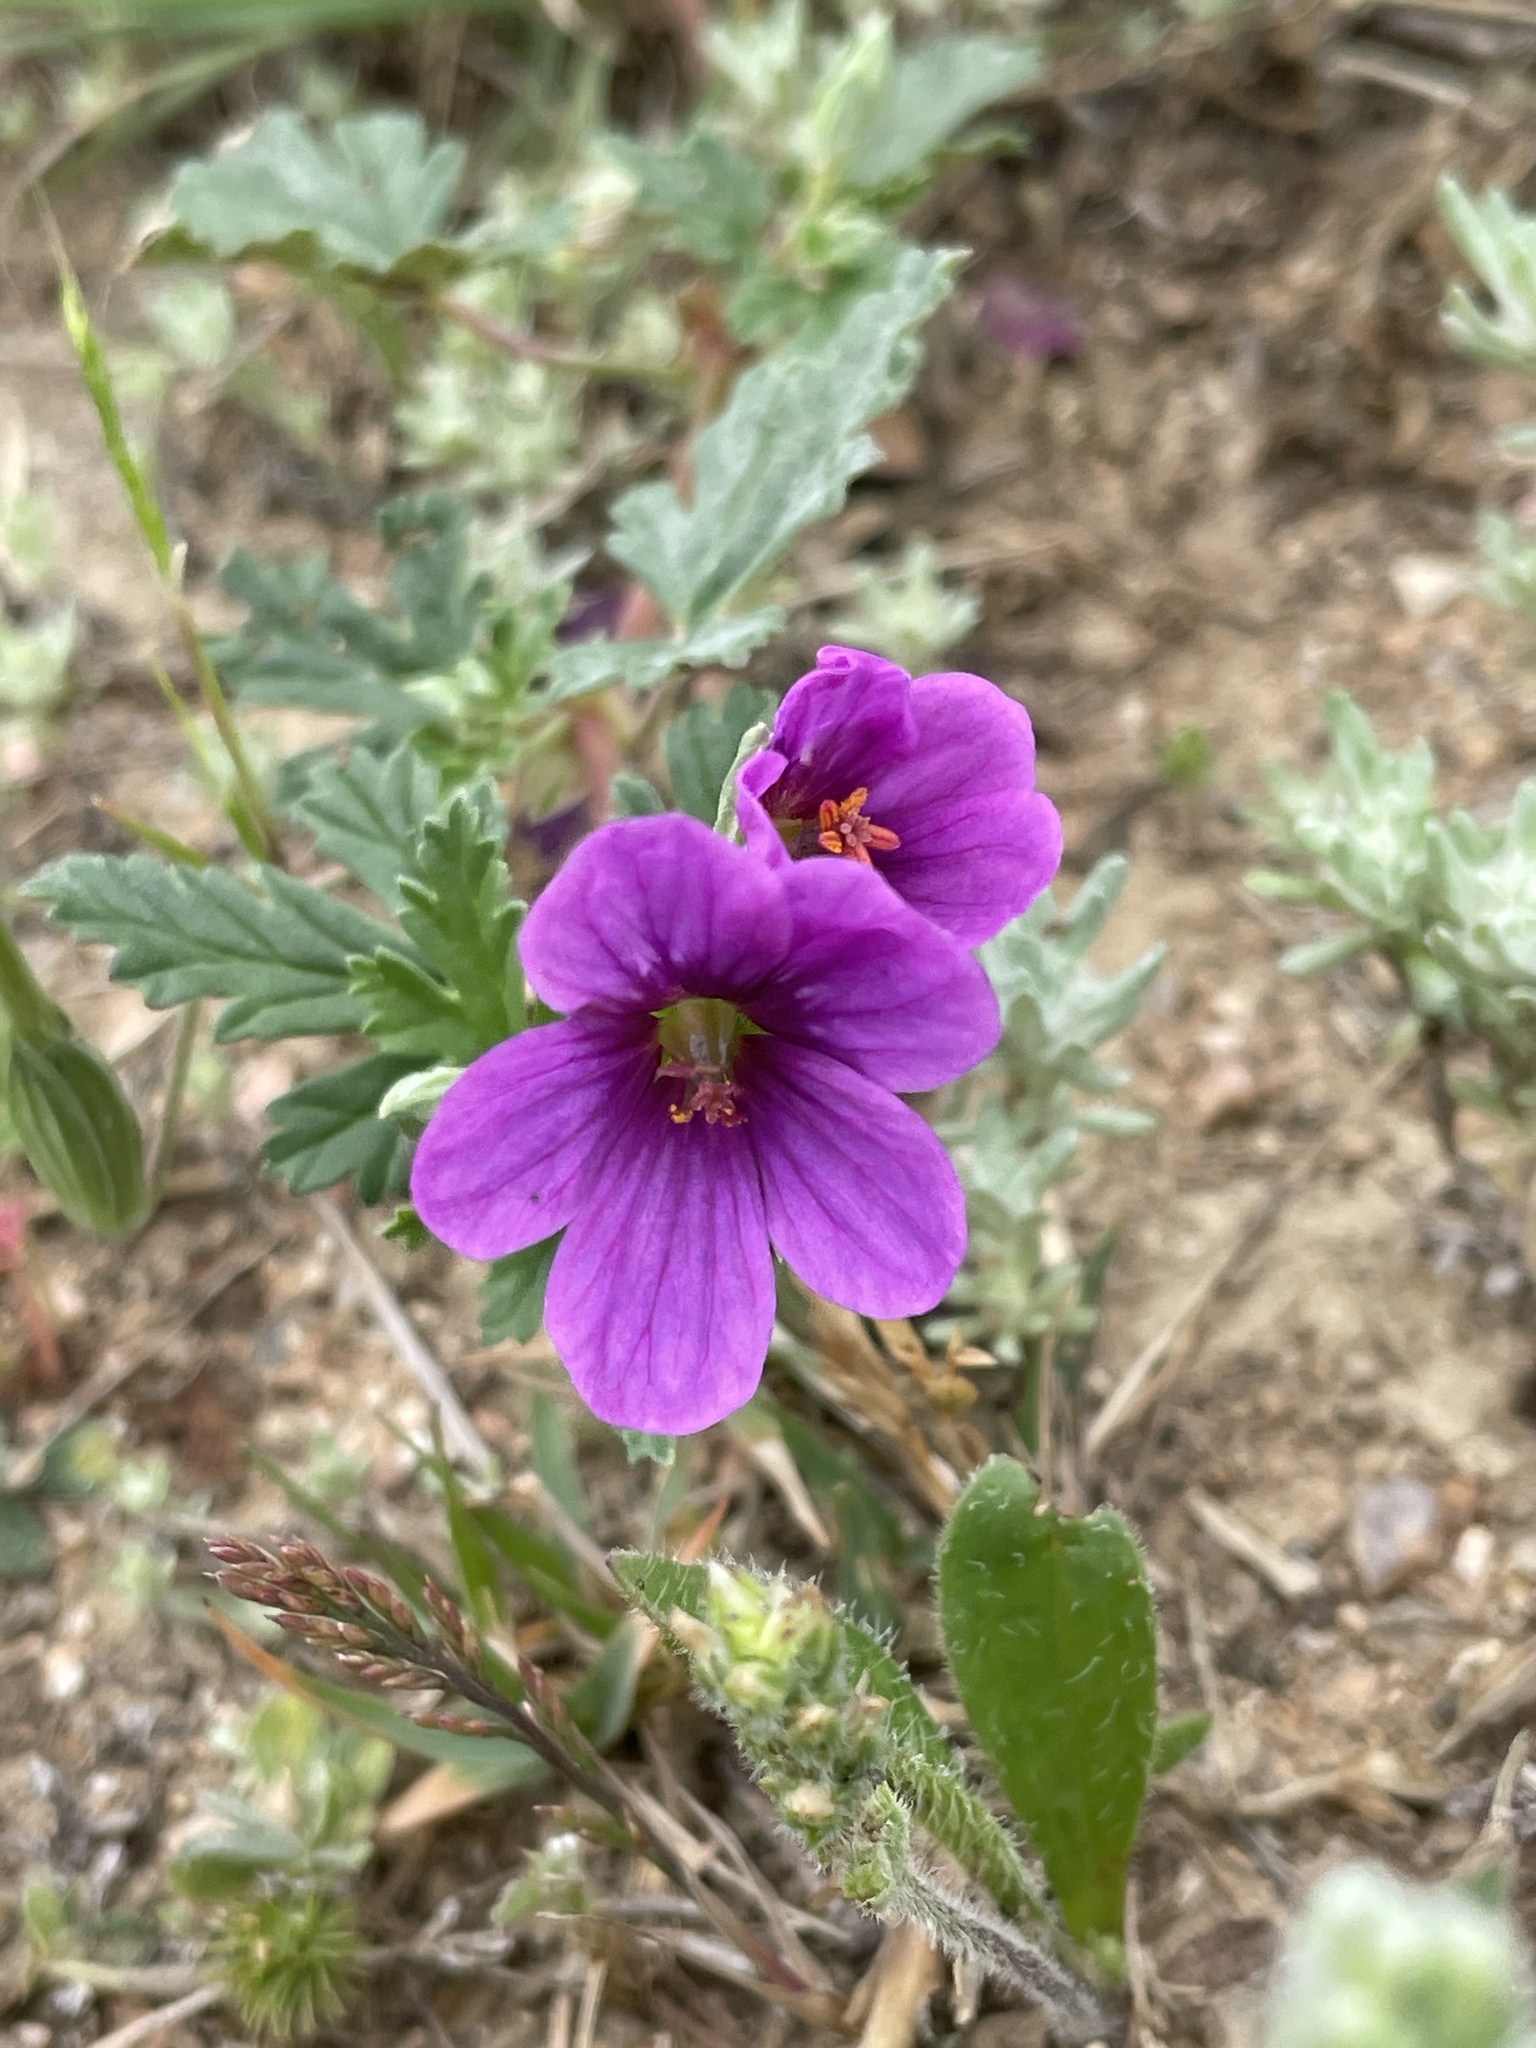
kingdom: Plantae
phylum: Tracheophyta
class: Magnoliopsida
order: Geraniales
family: Geraniaceae
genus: Erodium
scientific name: Erodium texanum
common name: Texas stork's-bill
